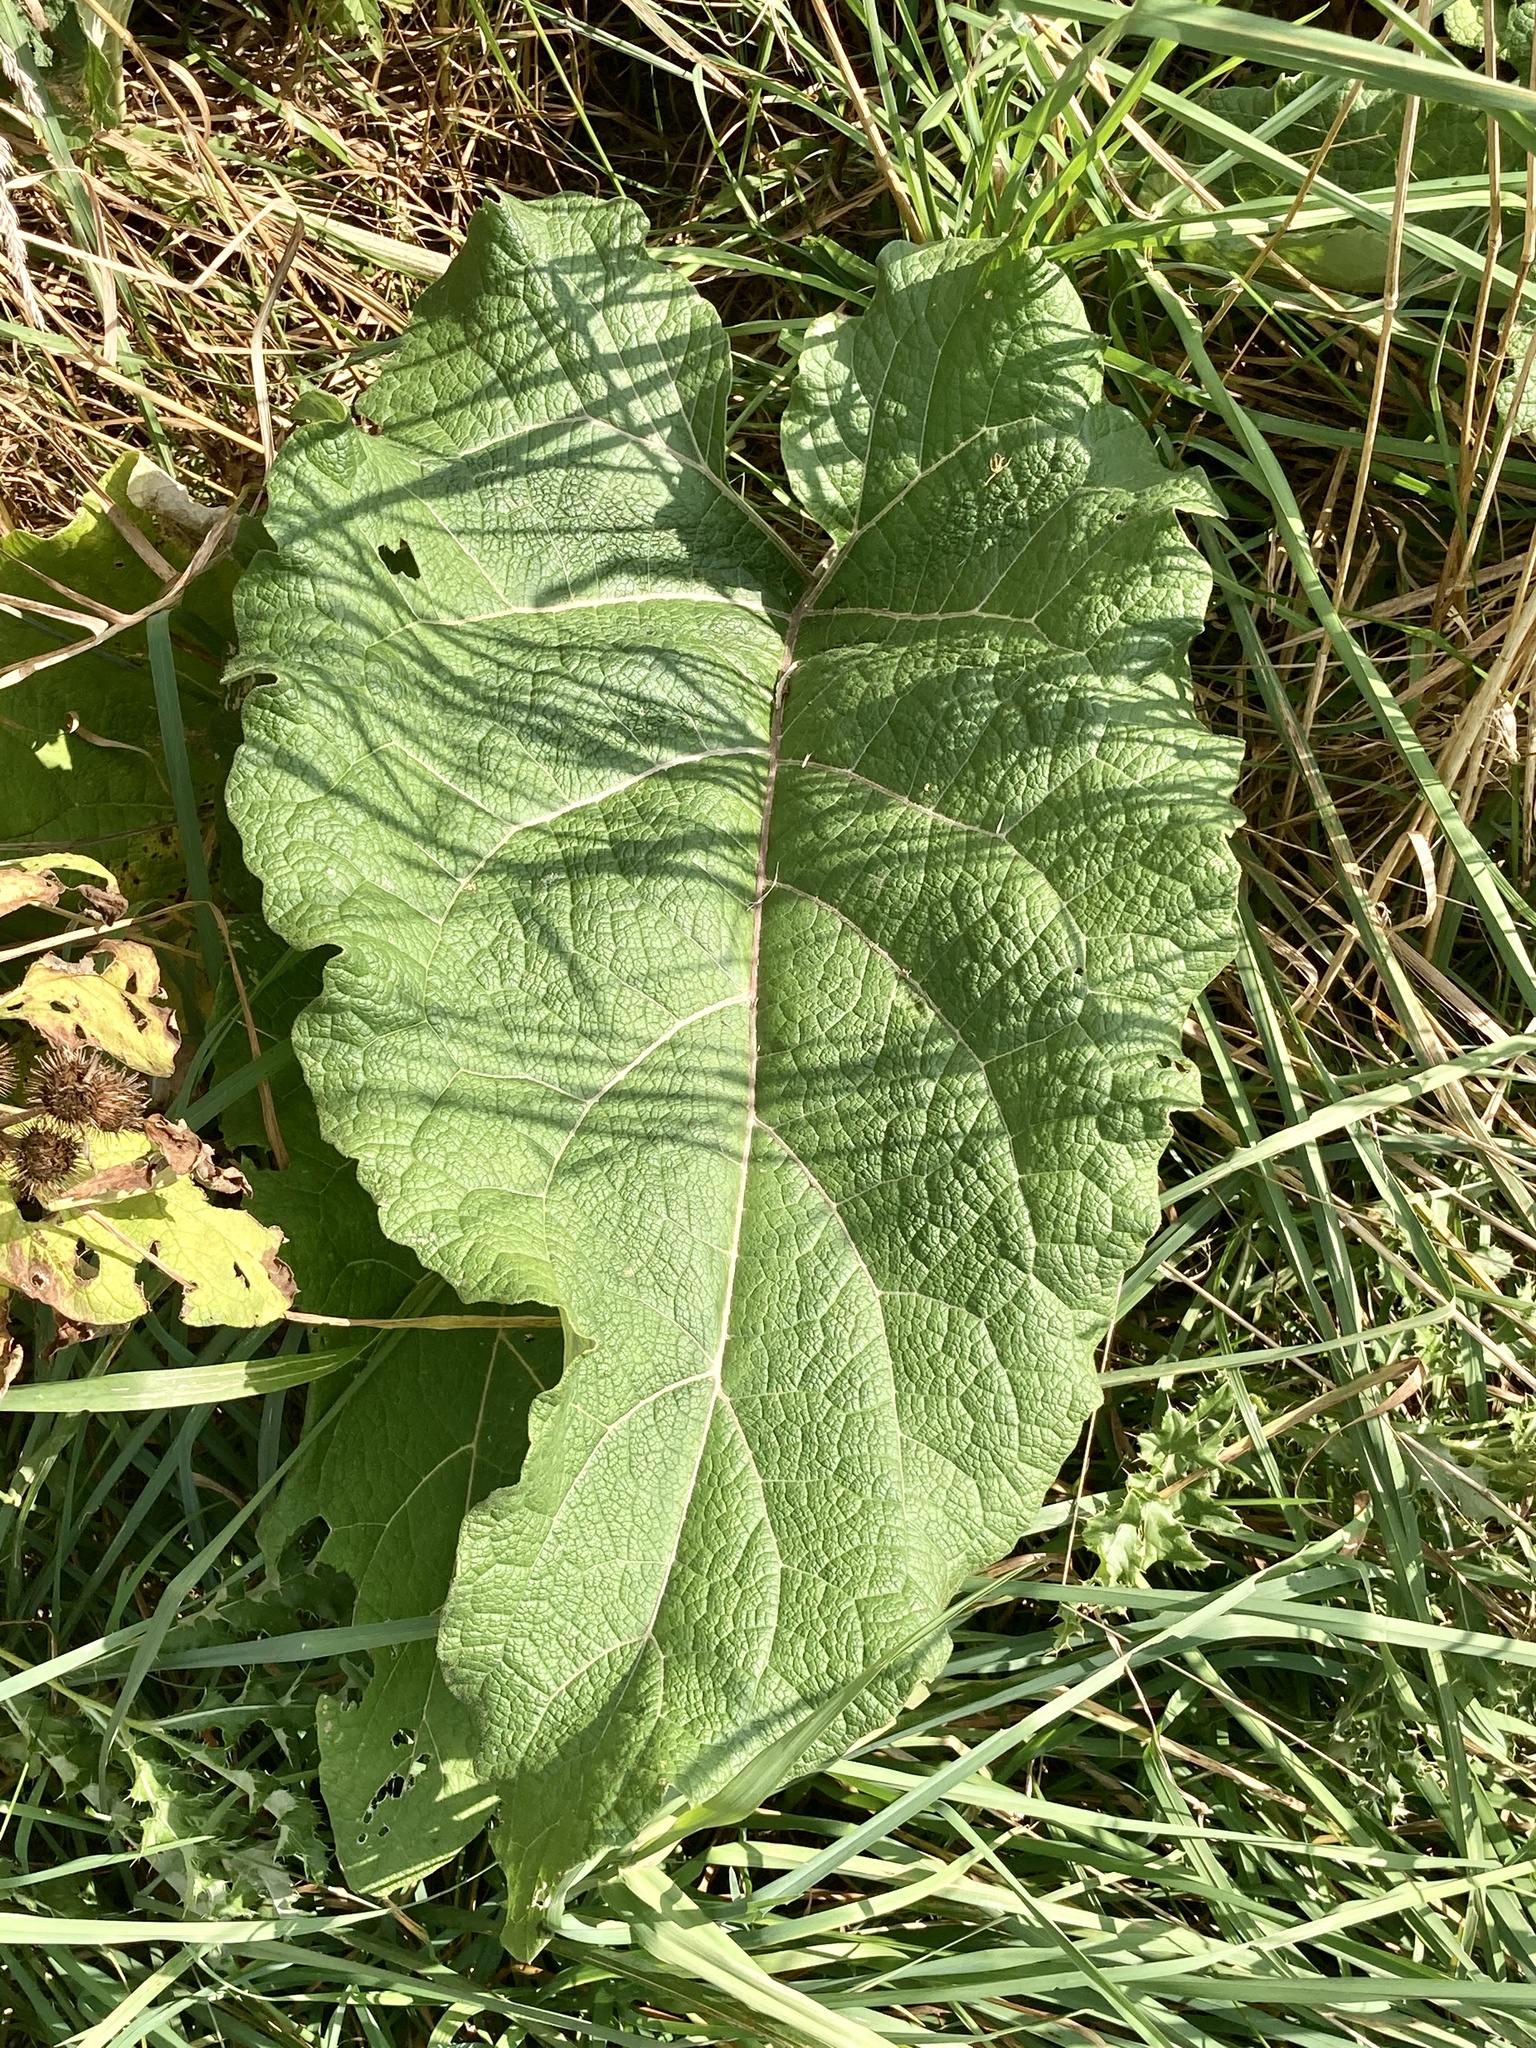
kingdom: Plantae
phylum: Tracheophyta
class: Magnoliopsida
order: Asterales
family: Asteraceae
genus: Arctium
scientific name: Arctium
